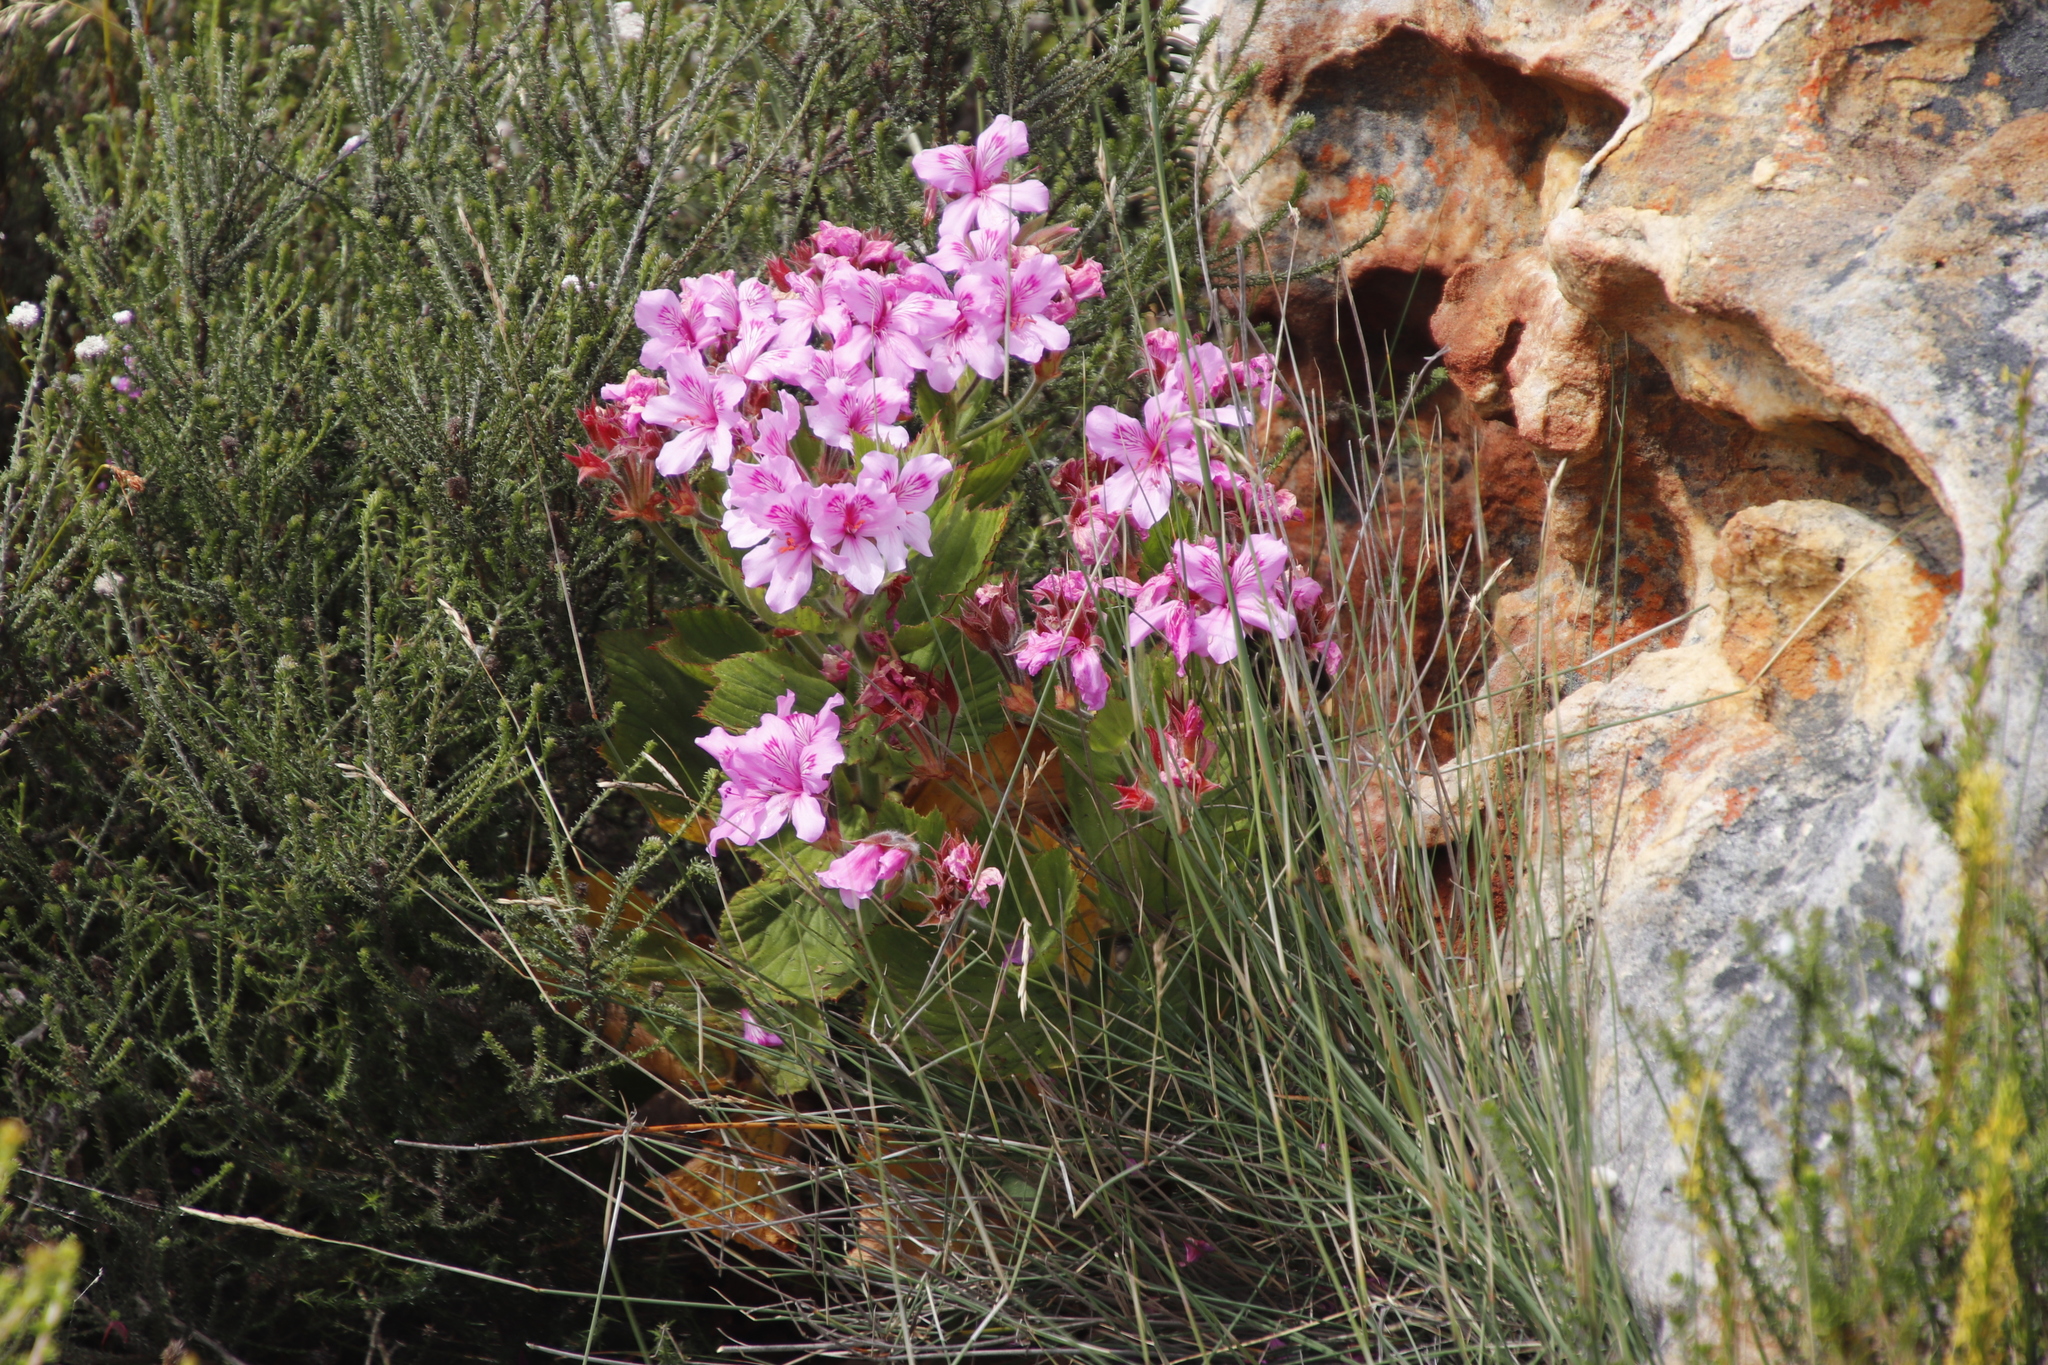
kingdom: Plantae
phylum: Tracheophyta
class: Magnoliopsida
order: Geraniales
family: Geraniaceae
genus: Pelargonium
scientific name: Pelargonium cucullatum
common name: Tree pelargonium
